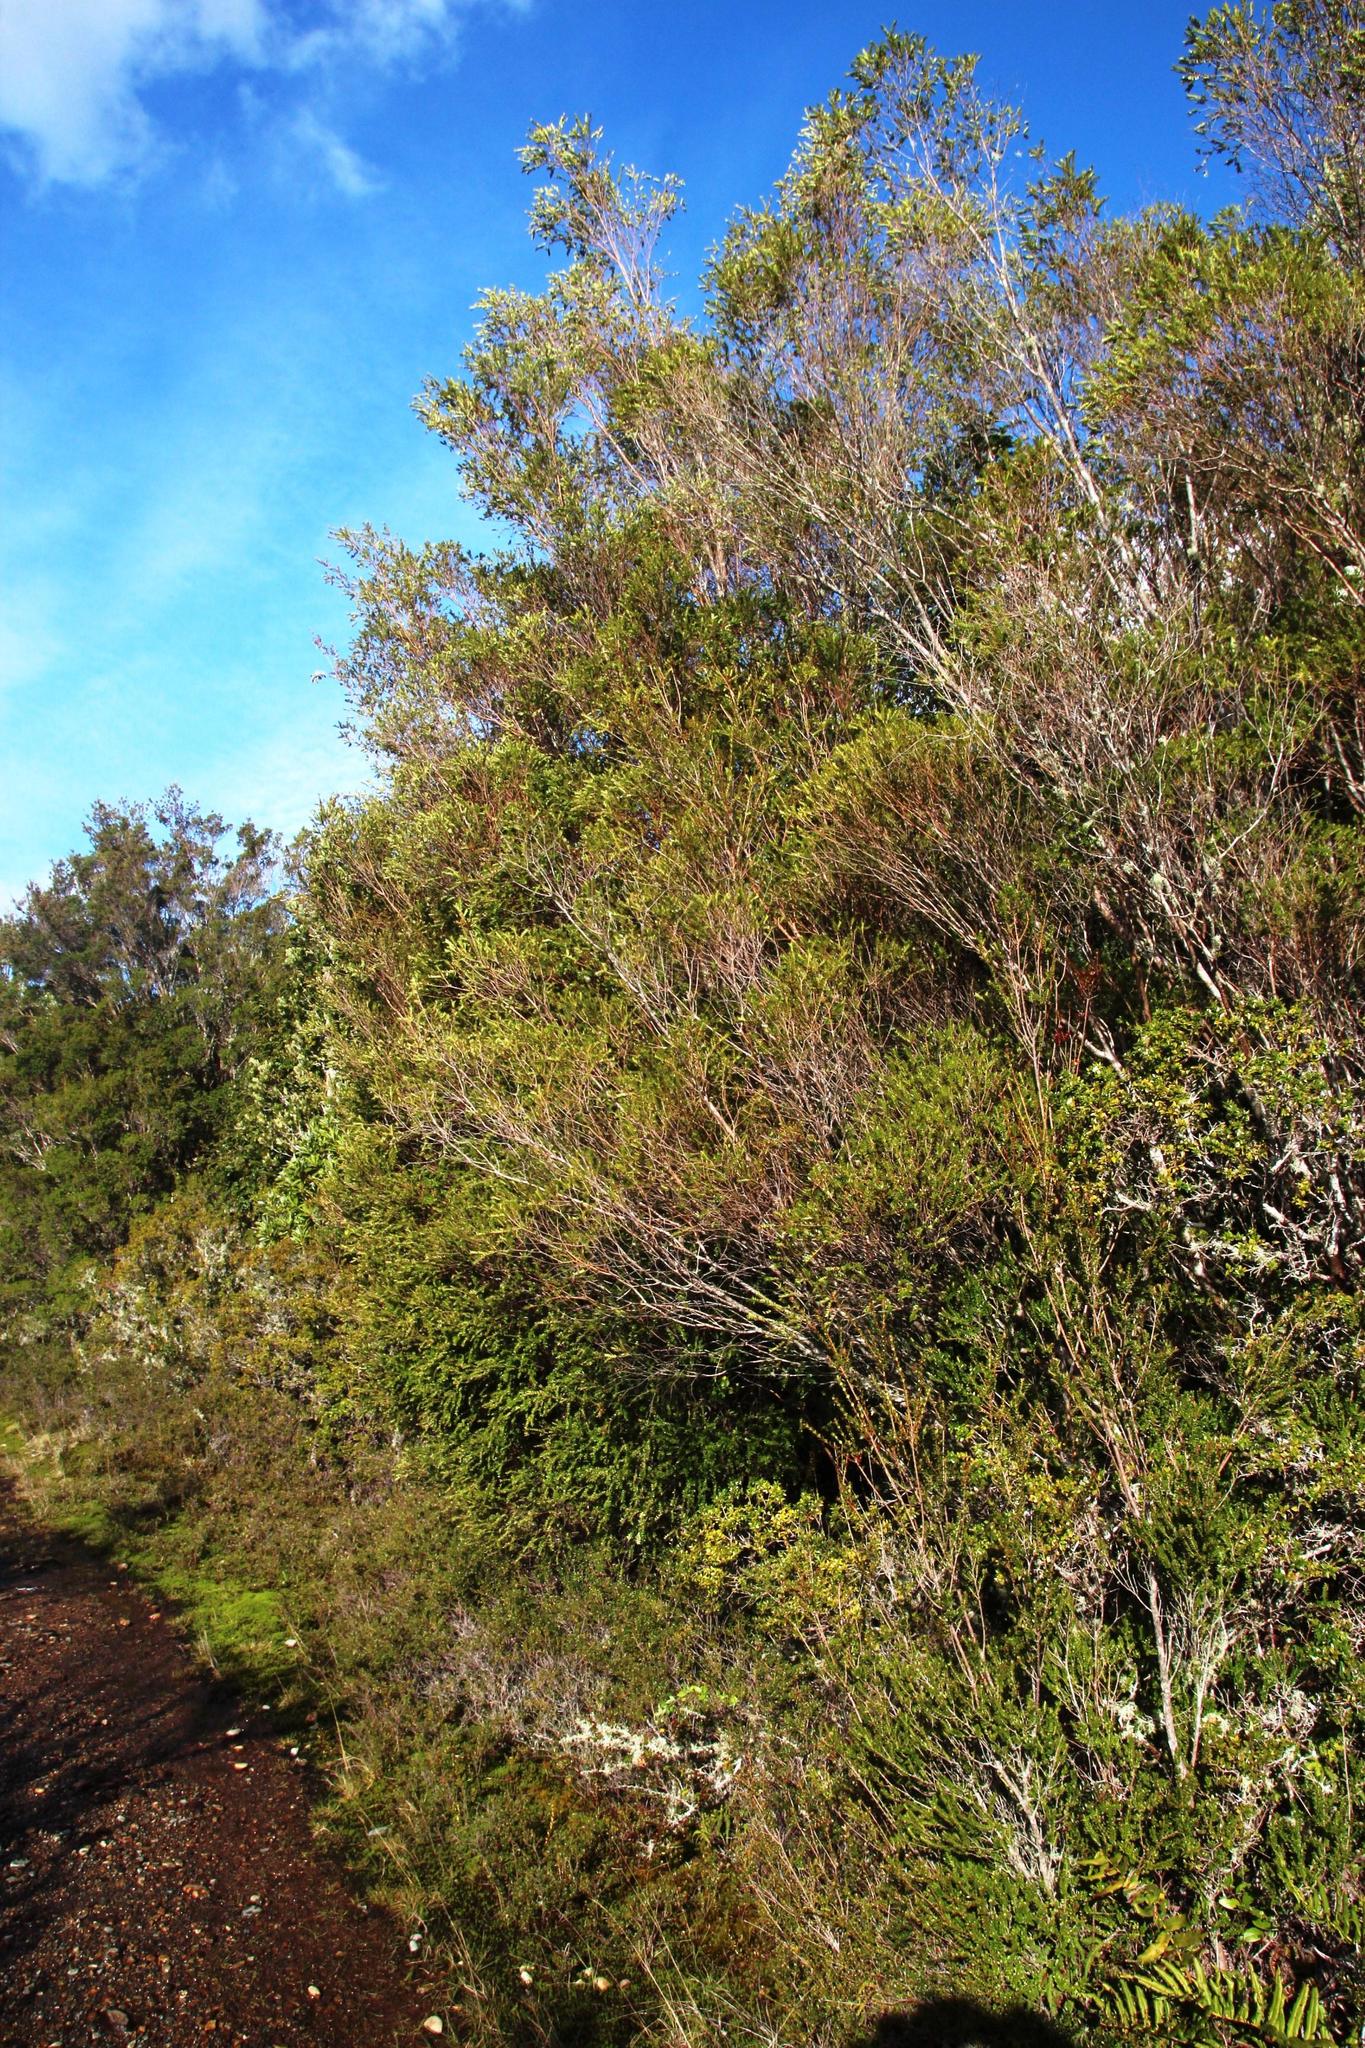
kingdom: Plantae
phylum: Tracheophyta
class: Magnoliopsida
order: Myrtales
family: Myrtaceae
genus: Tepualia
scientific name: Tepualia stipularis
